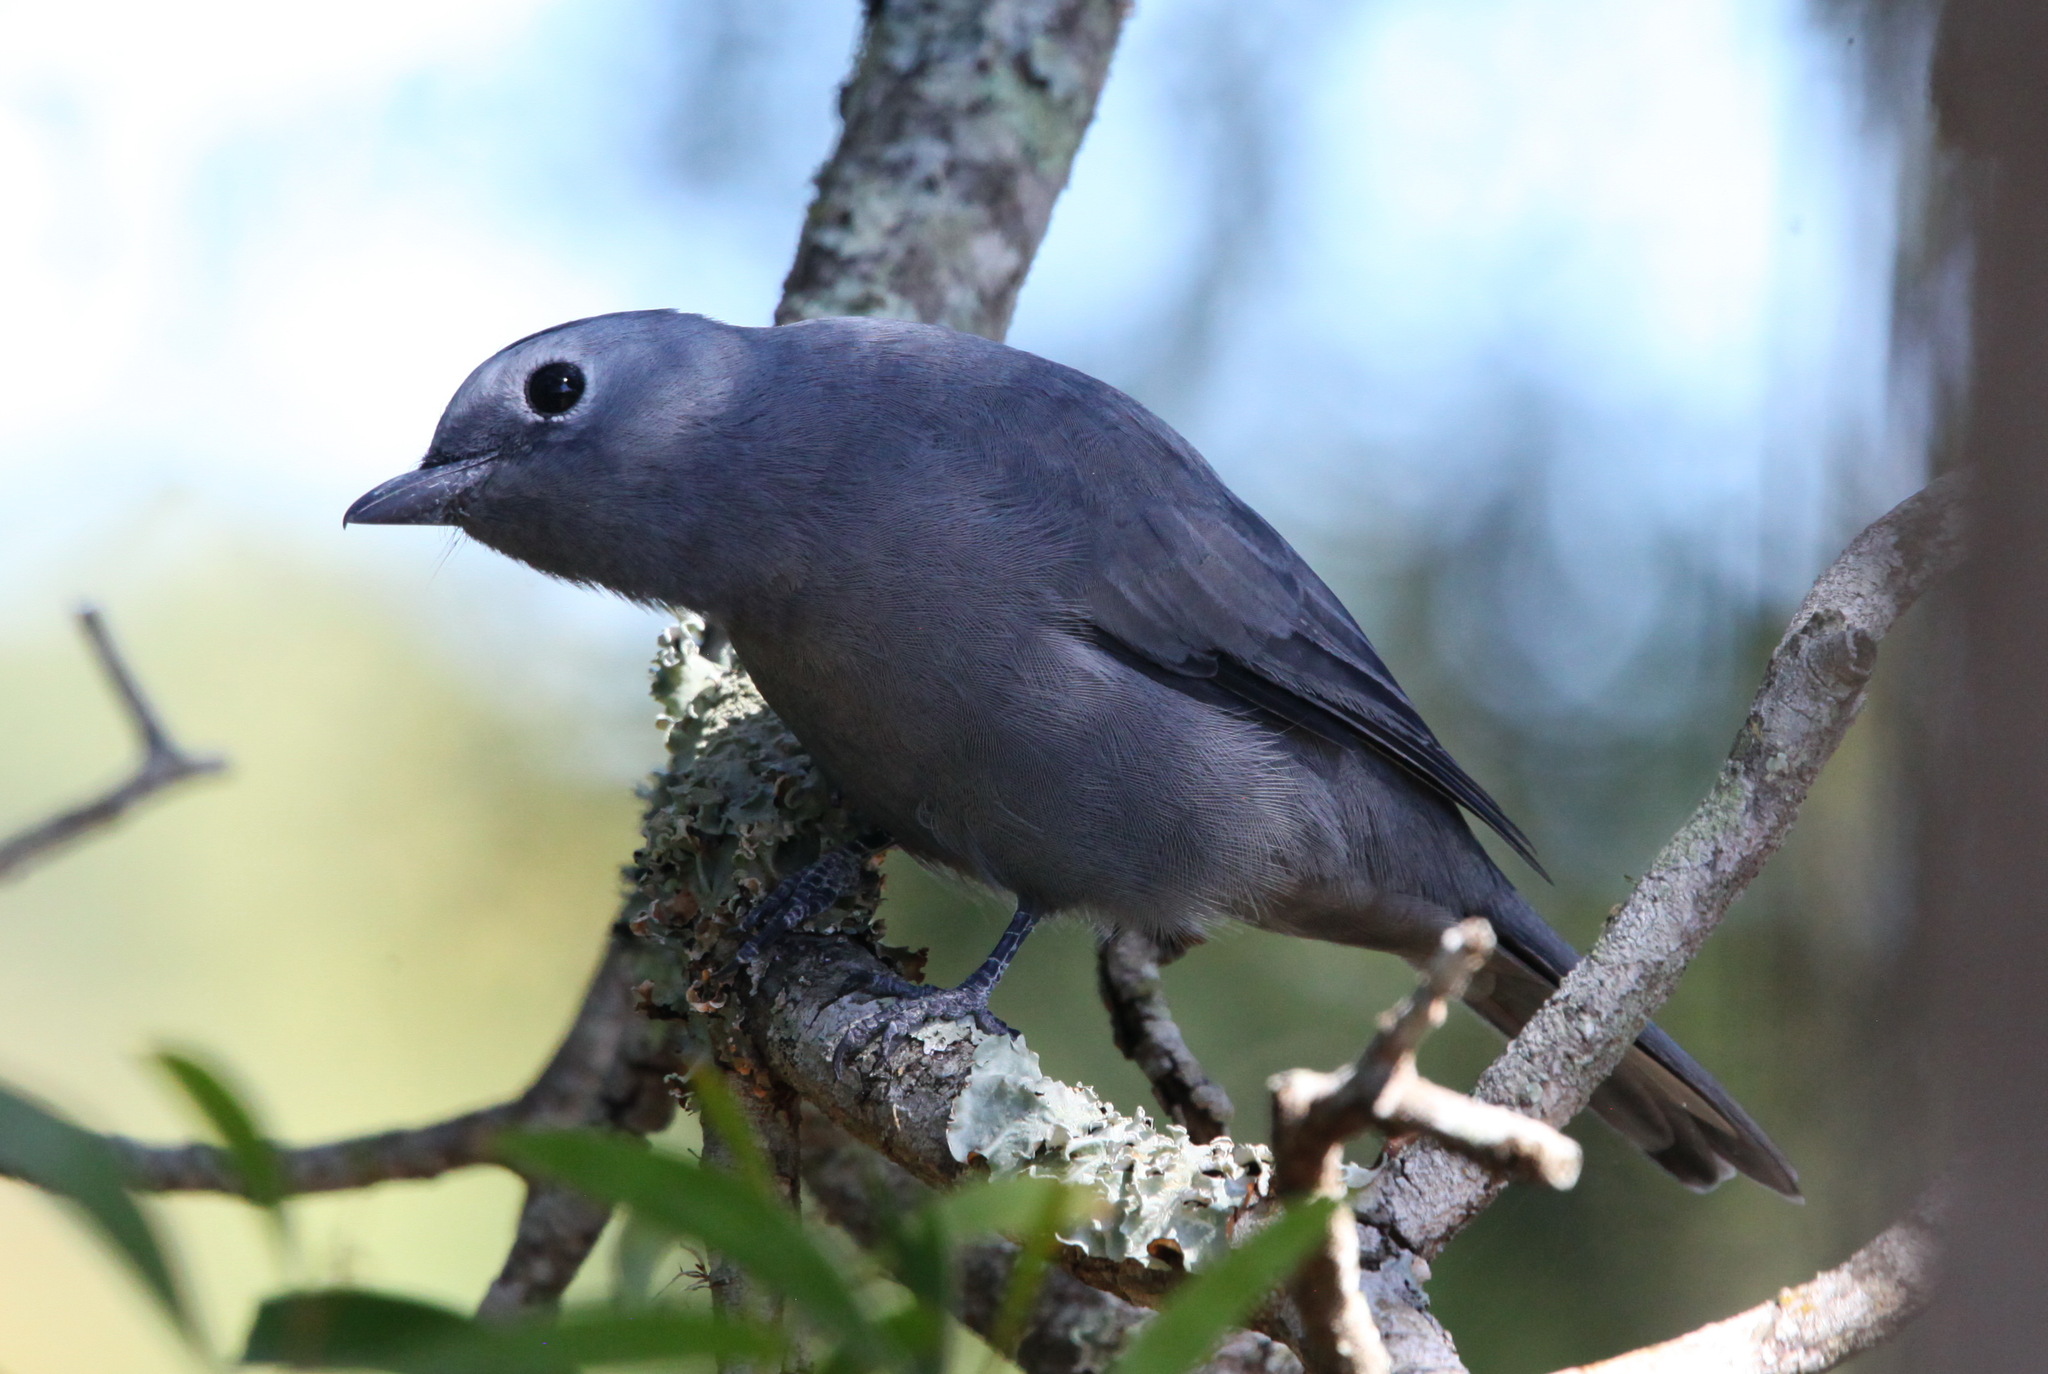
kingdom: Animalia
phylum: Chordata
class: Aves
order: Passeriformes
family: Campephagidae
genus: Coracina
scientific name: Coracina caesia
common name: Grey cuckooshrike
